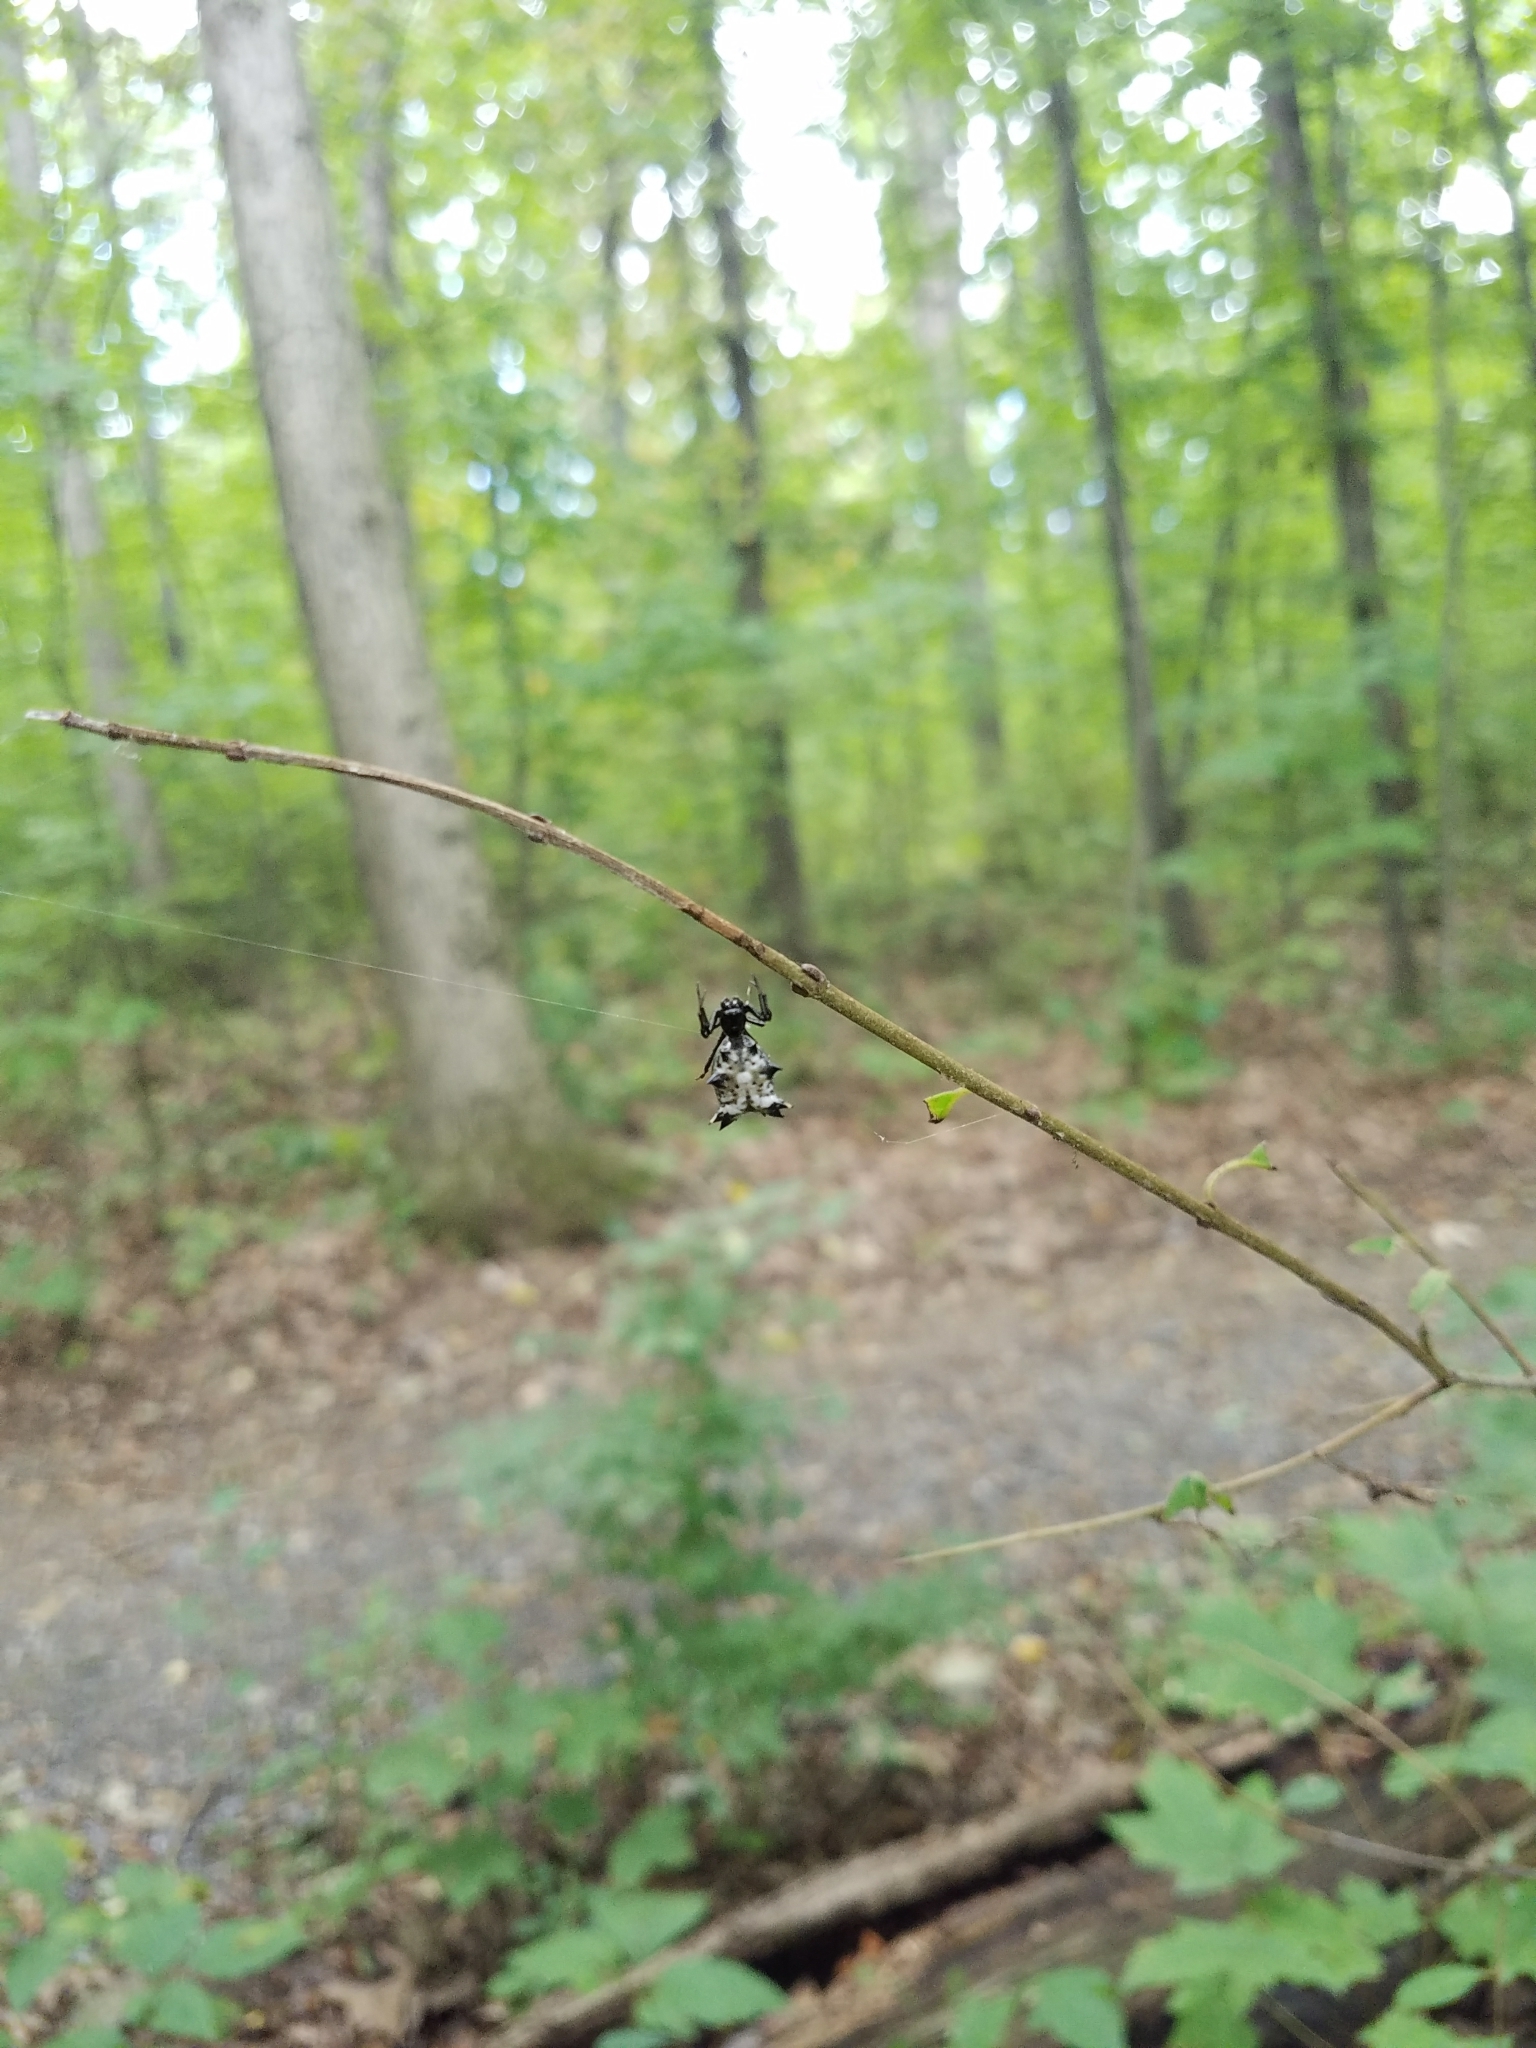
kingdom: Animalia
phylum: Arthropoda
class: Arachnida
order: Araneae
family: Araneidae
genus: Micrathena
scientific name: Micrathena gracilis
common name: Orb weavers
